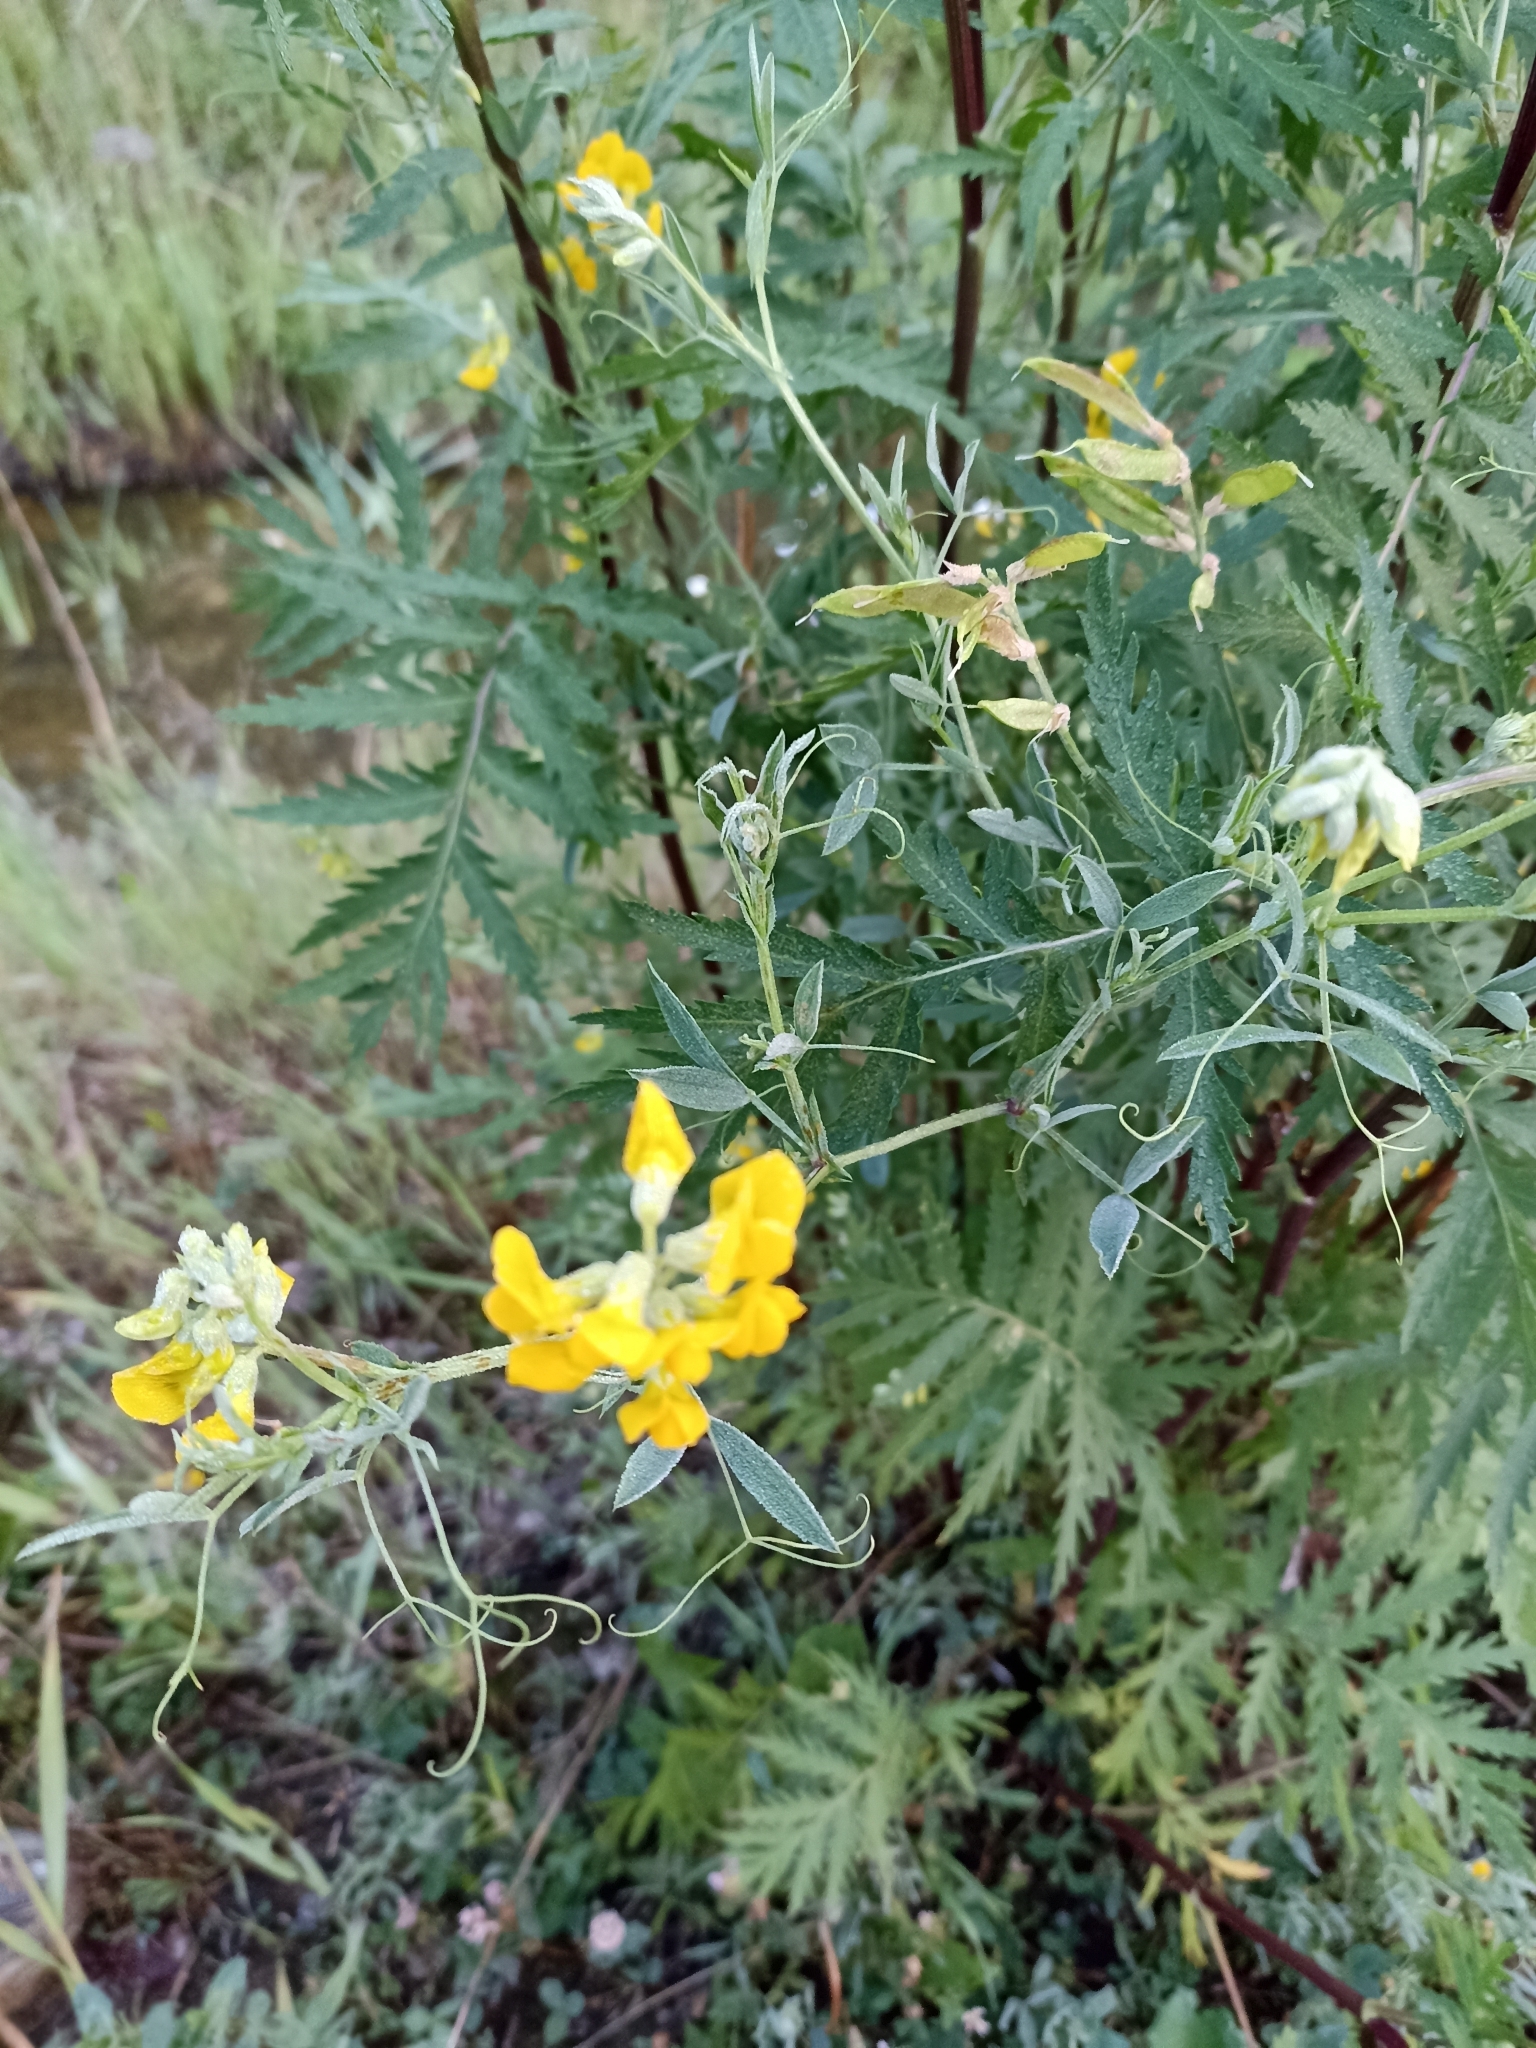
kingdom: Plantae
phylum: Tracheophyta
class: Magnoliopsida
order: Fabales
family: Fabaceae
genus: Lathyrus
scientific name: Lathyrus pratensis
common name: Meadow vetchling
